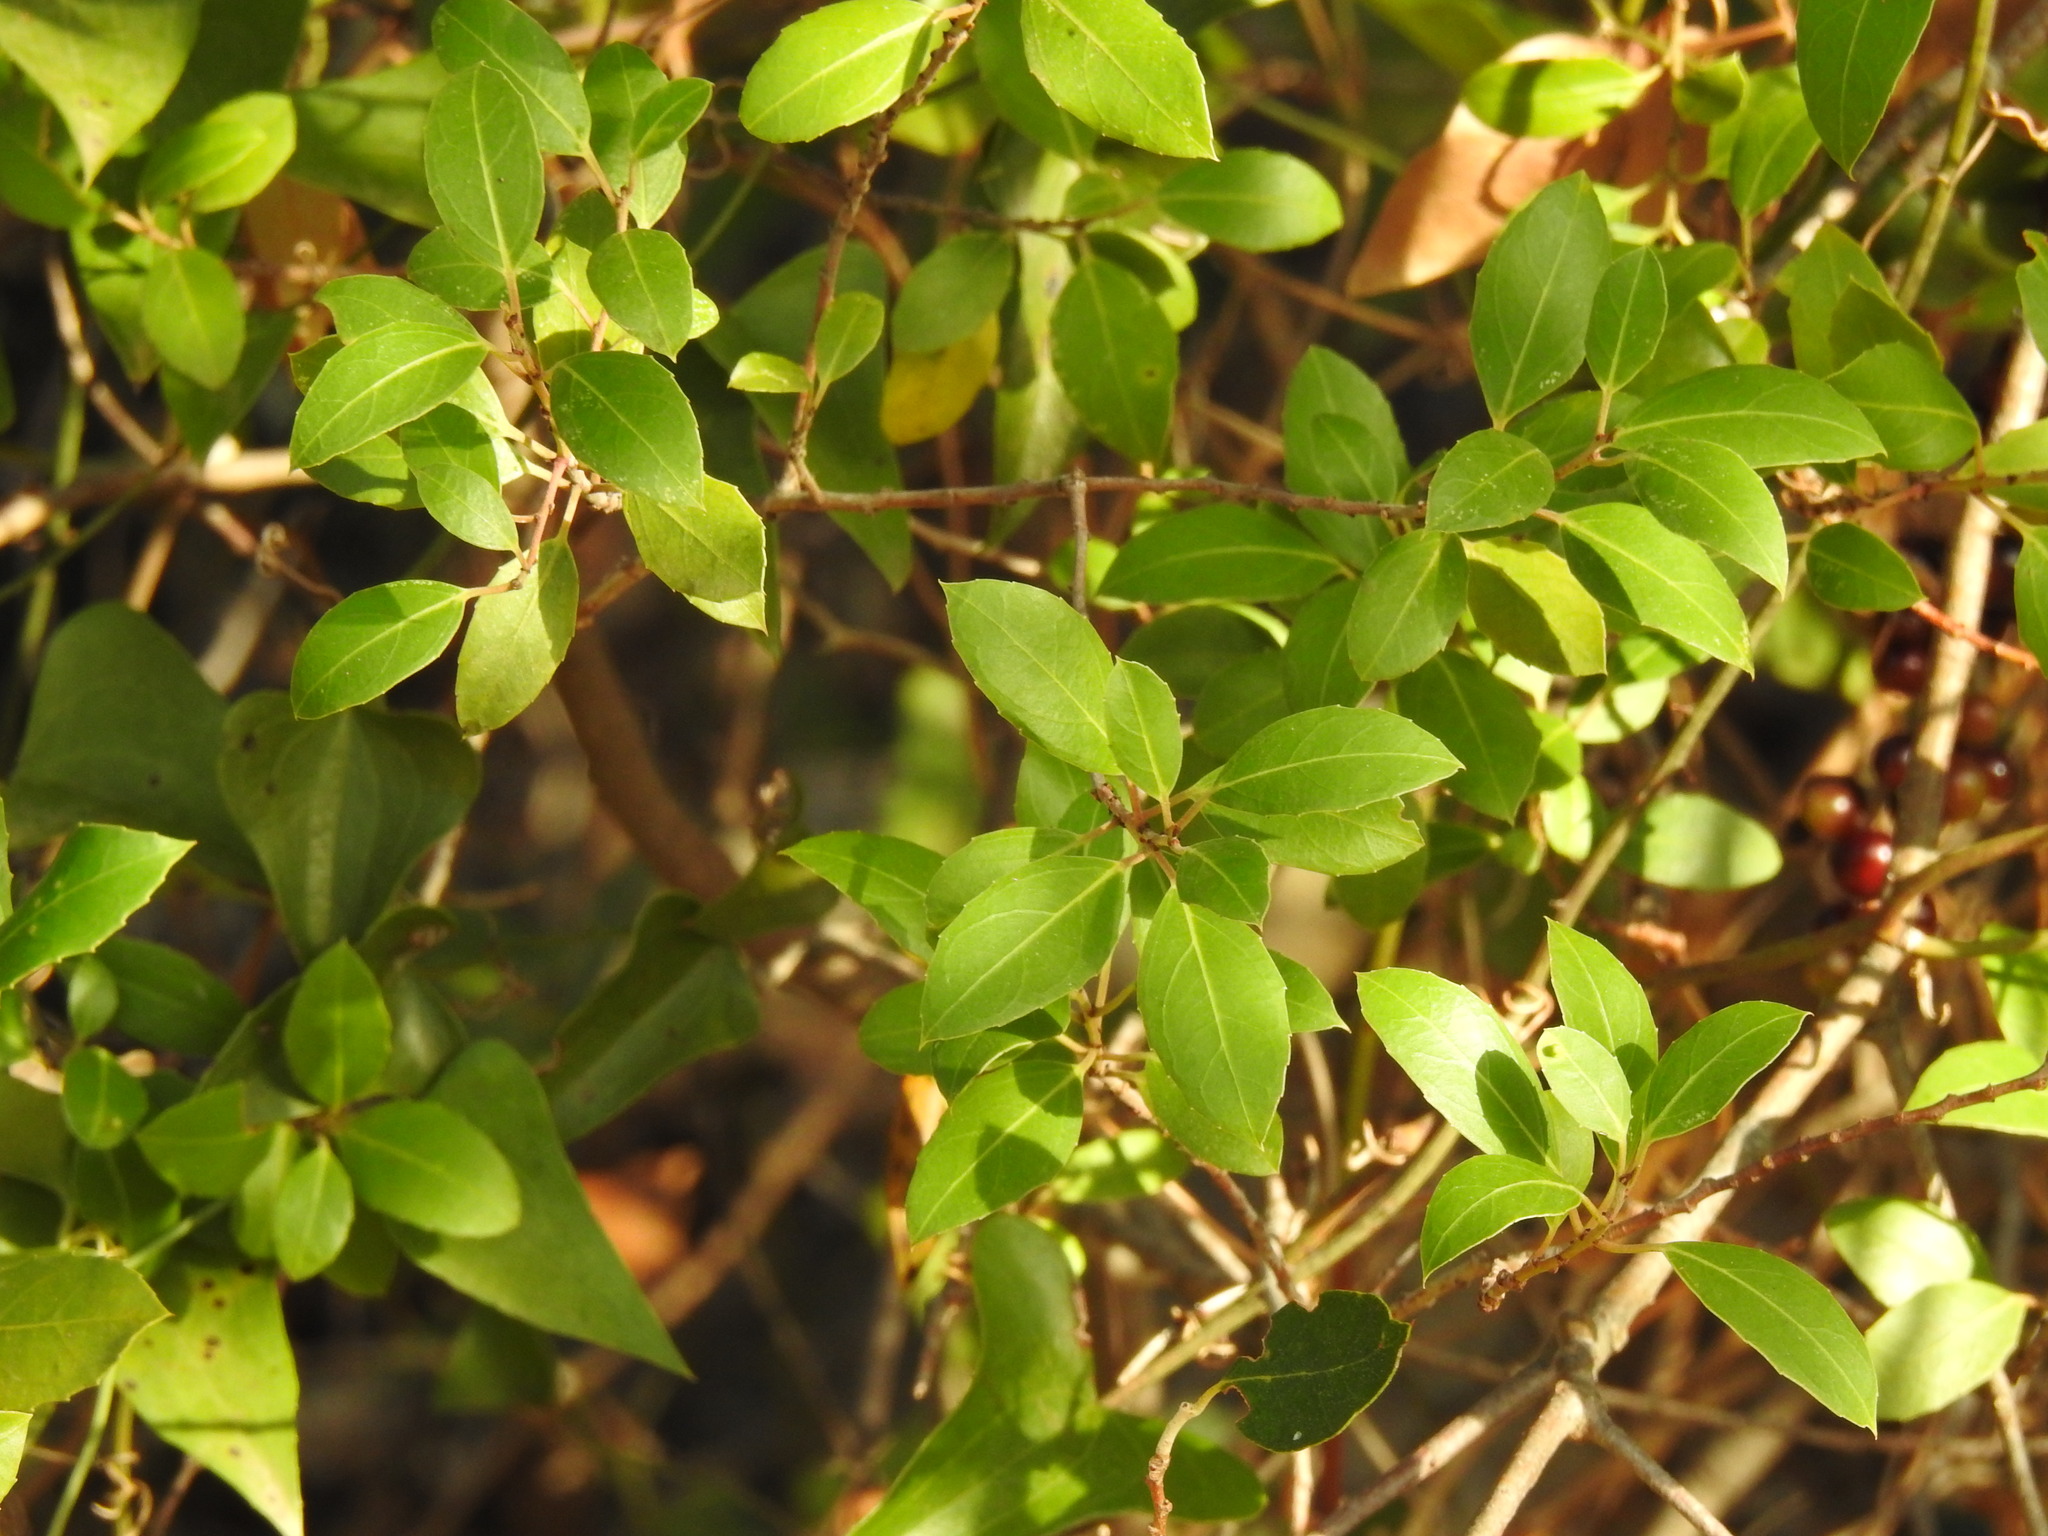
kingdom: Plantae
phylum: Tracheophyta
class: Magnoliopsida
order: Rosales
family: Rhamnaceae
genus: Rhamnus
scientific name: Rhamnus alaternus
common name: Mediterranean buckthorn
